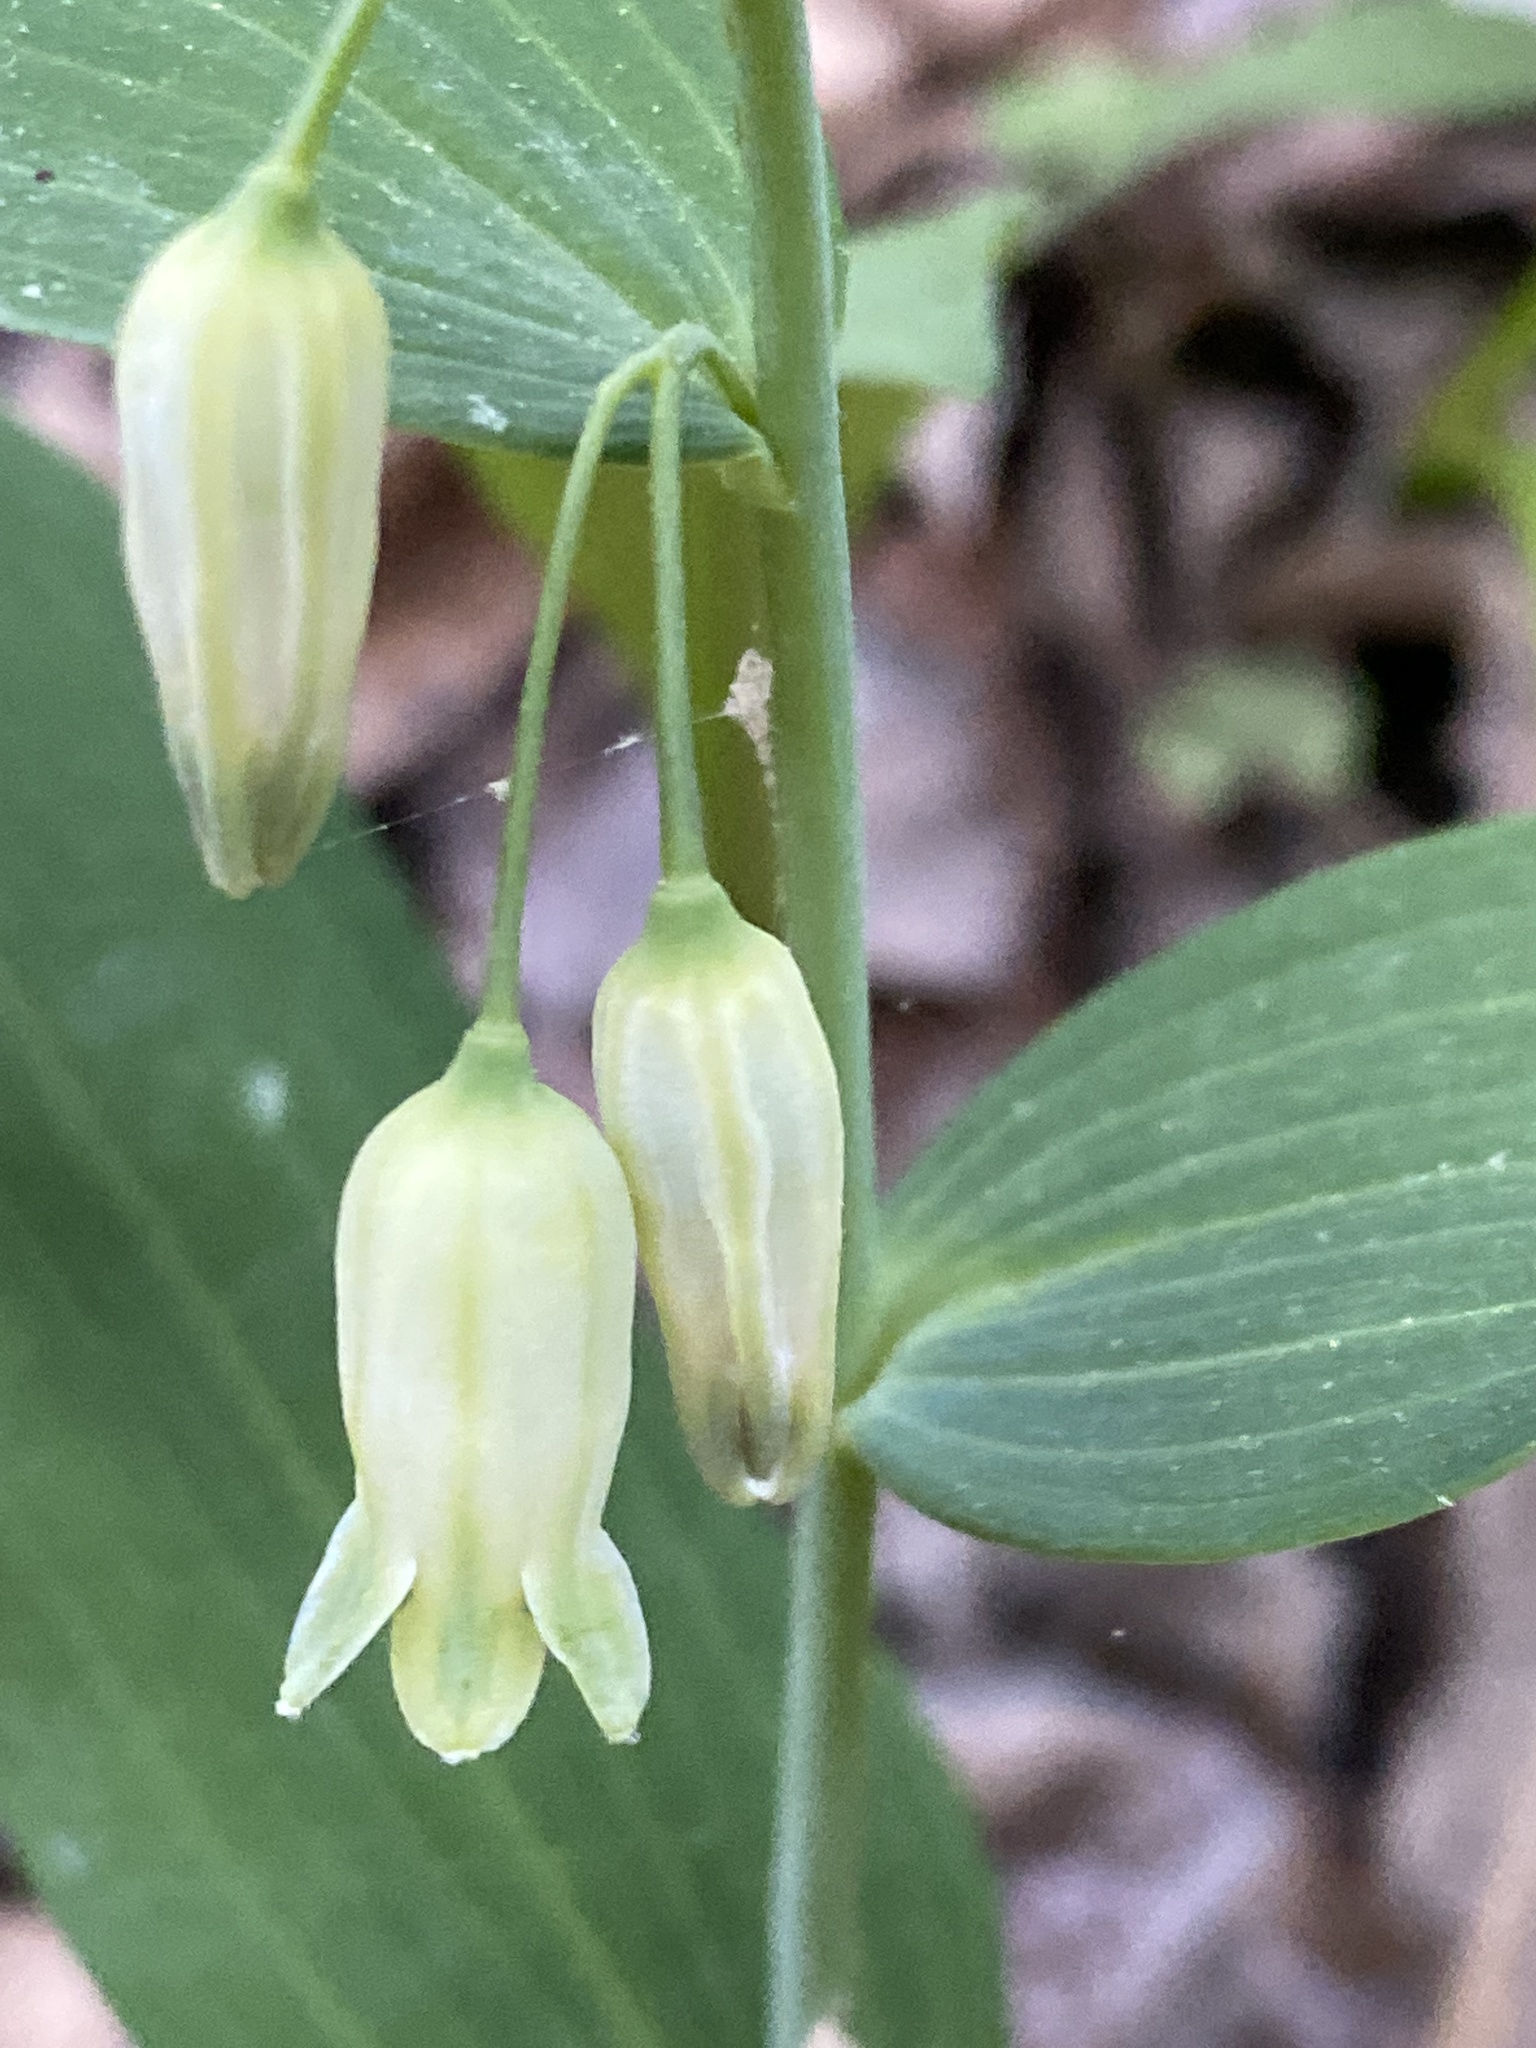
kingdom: Plantae
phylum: Tracheophyta
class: Liliopsida
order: Asparagales
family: Asparagaceae
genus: Polygonatum
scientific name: Polygonatum biflorum
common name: American solomon's-seal
